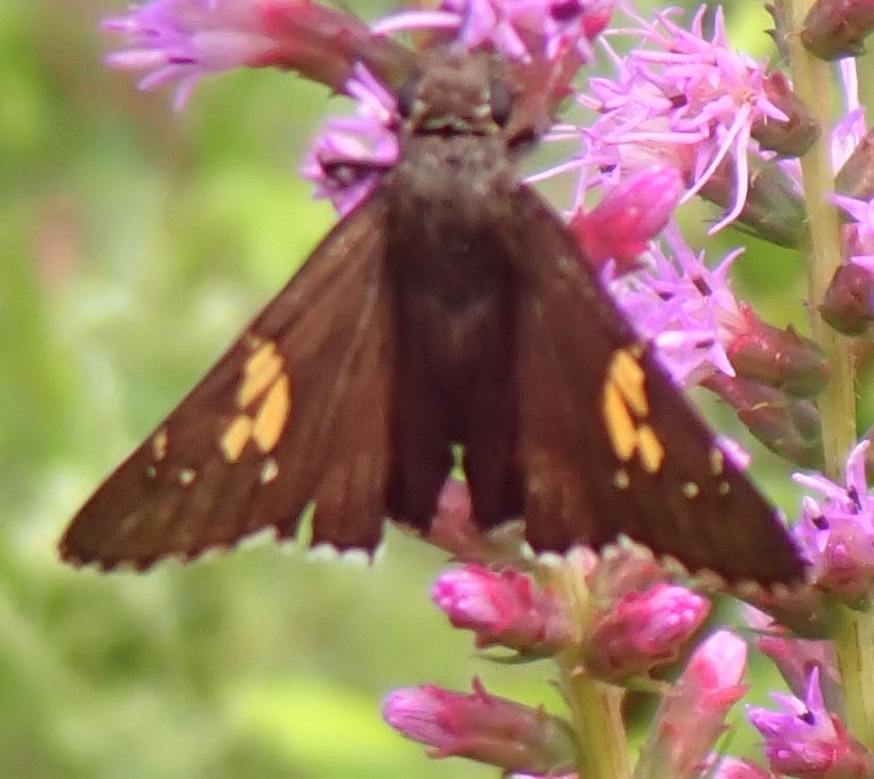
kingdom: Animalia
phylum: Arthropoda
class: Insecta
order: Lepidoptera
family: Hesperiidae
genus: Thorybes
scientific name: Thorybes lyciades
